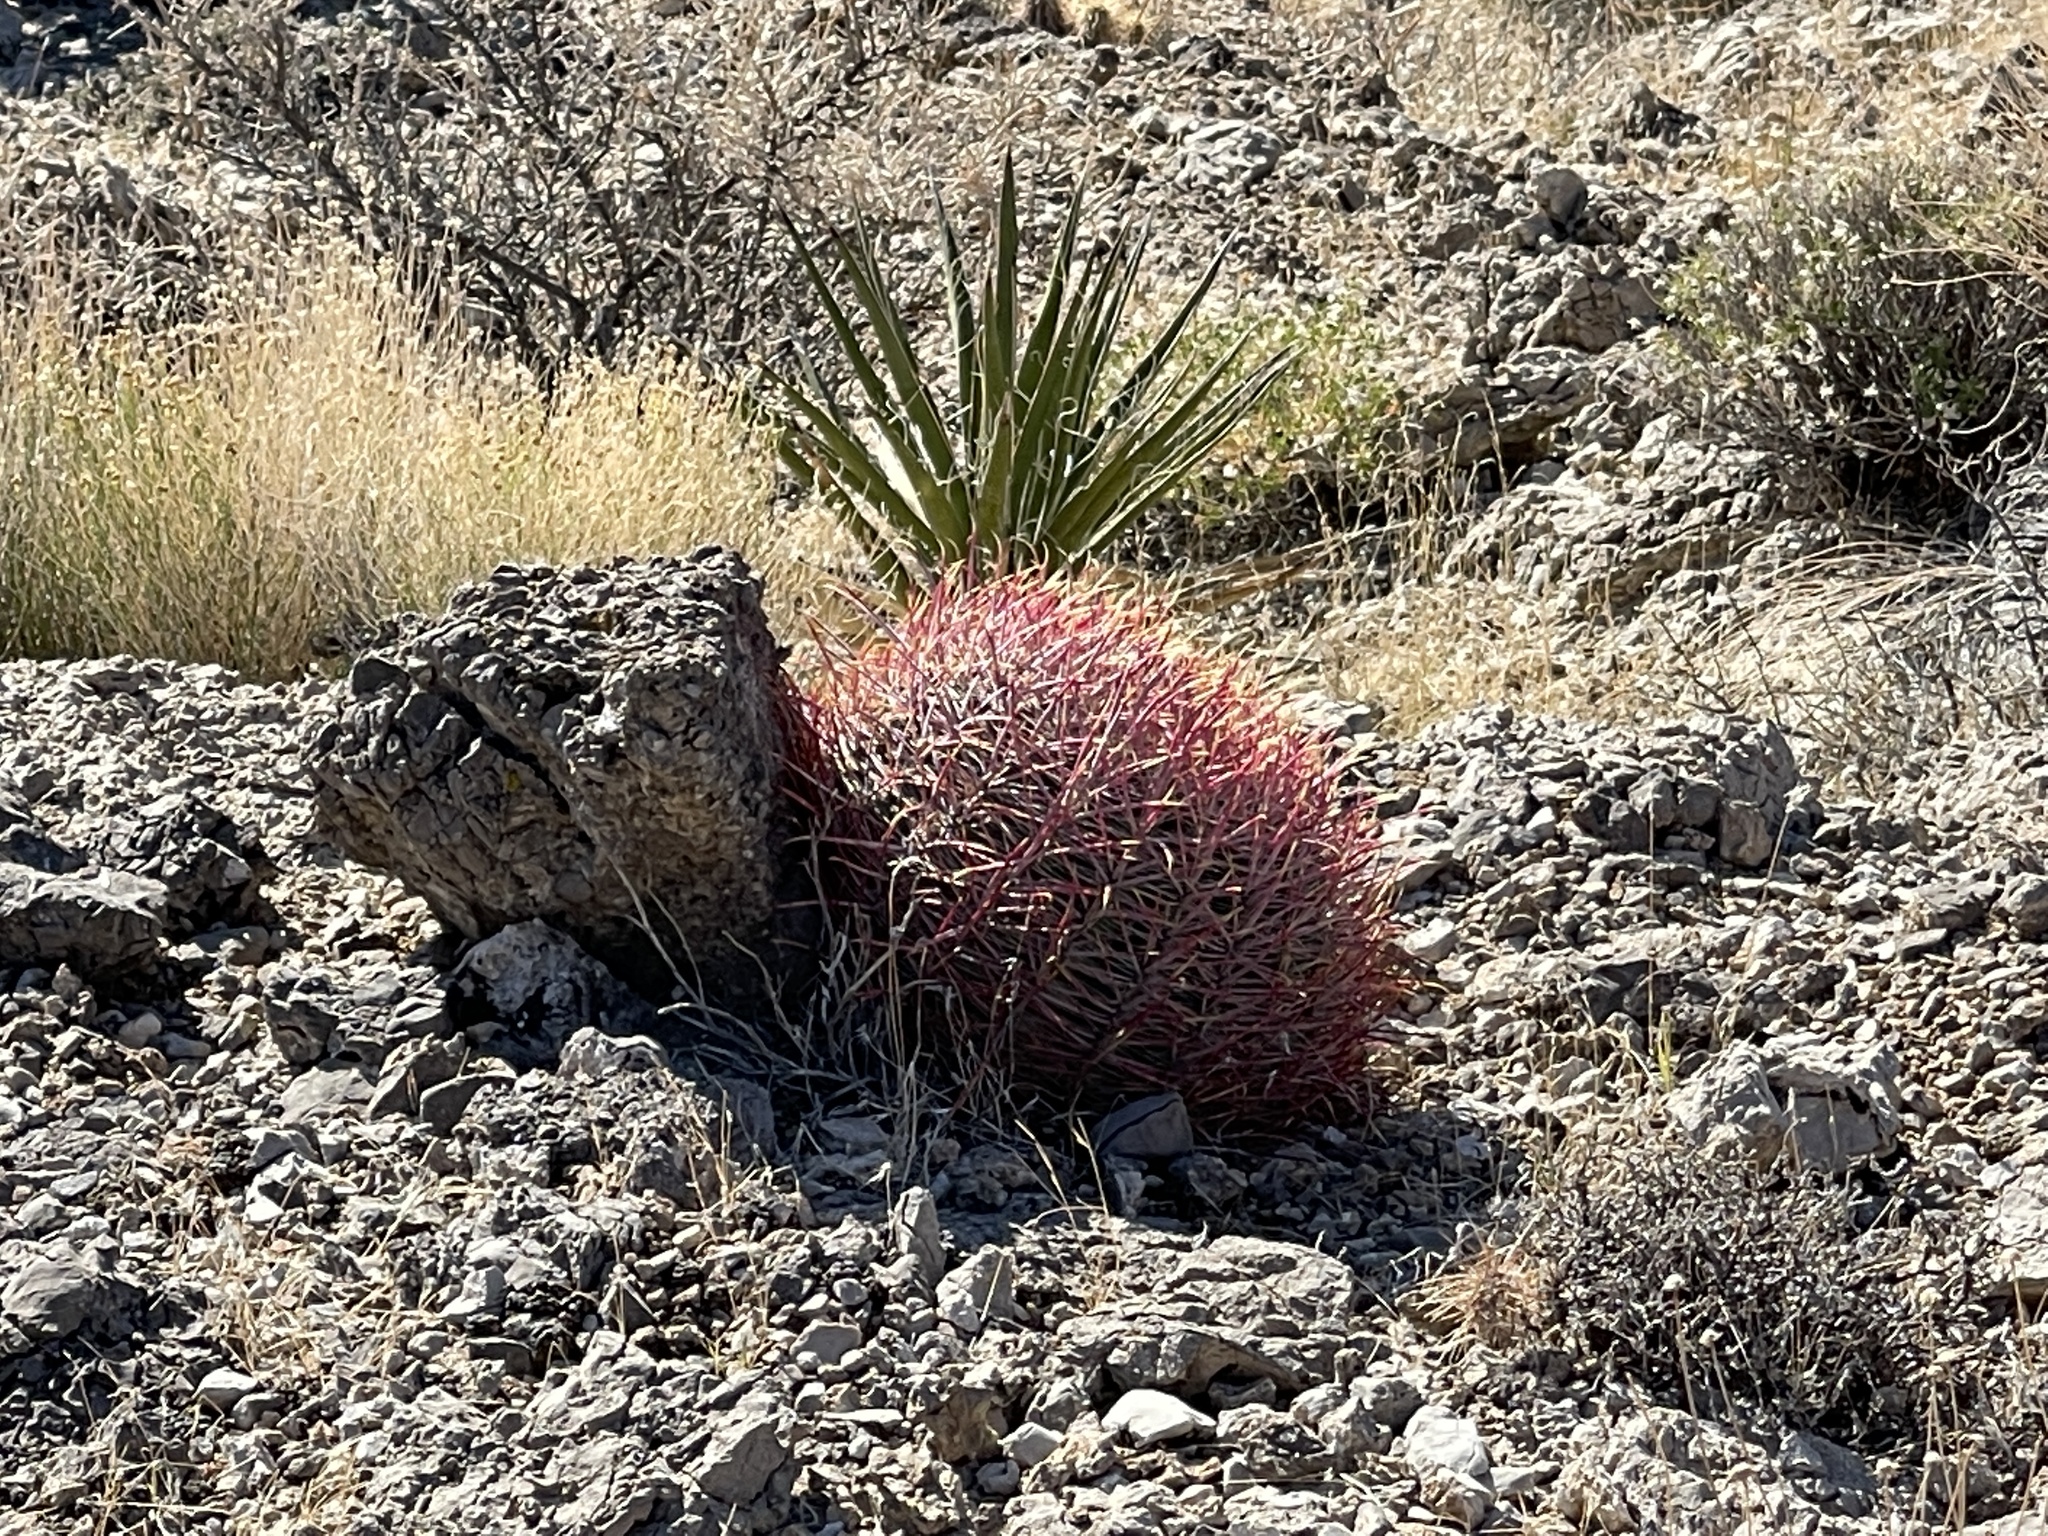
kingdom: Plantae
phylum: Tracheophyta
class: Magnoliopsida
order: Caryophyllales
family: Cactaceae
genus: Ferocactus
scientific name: Ferocactus cylindraceus
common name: California barrel cactus
